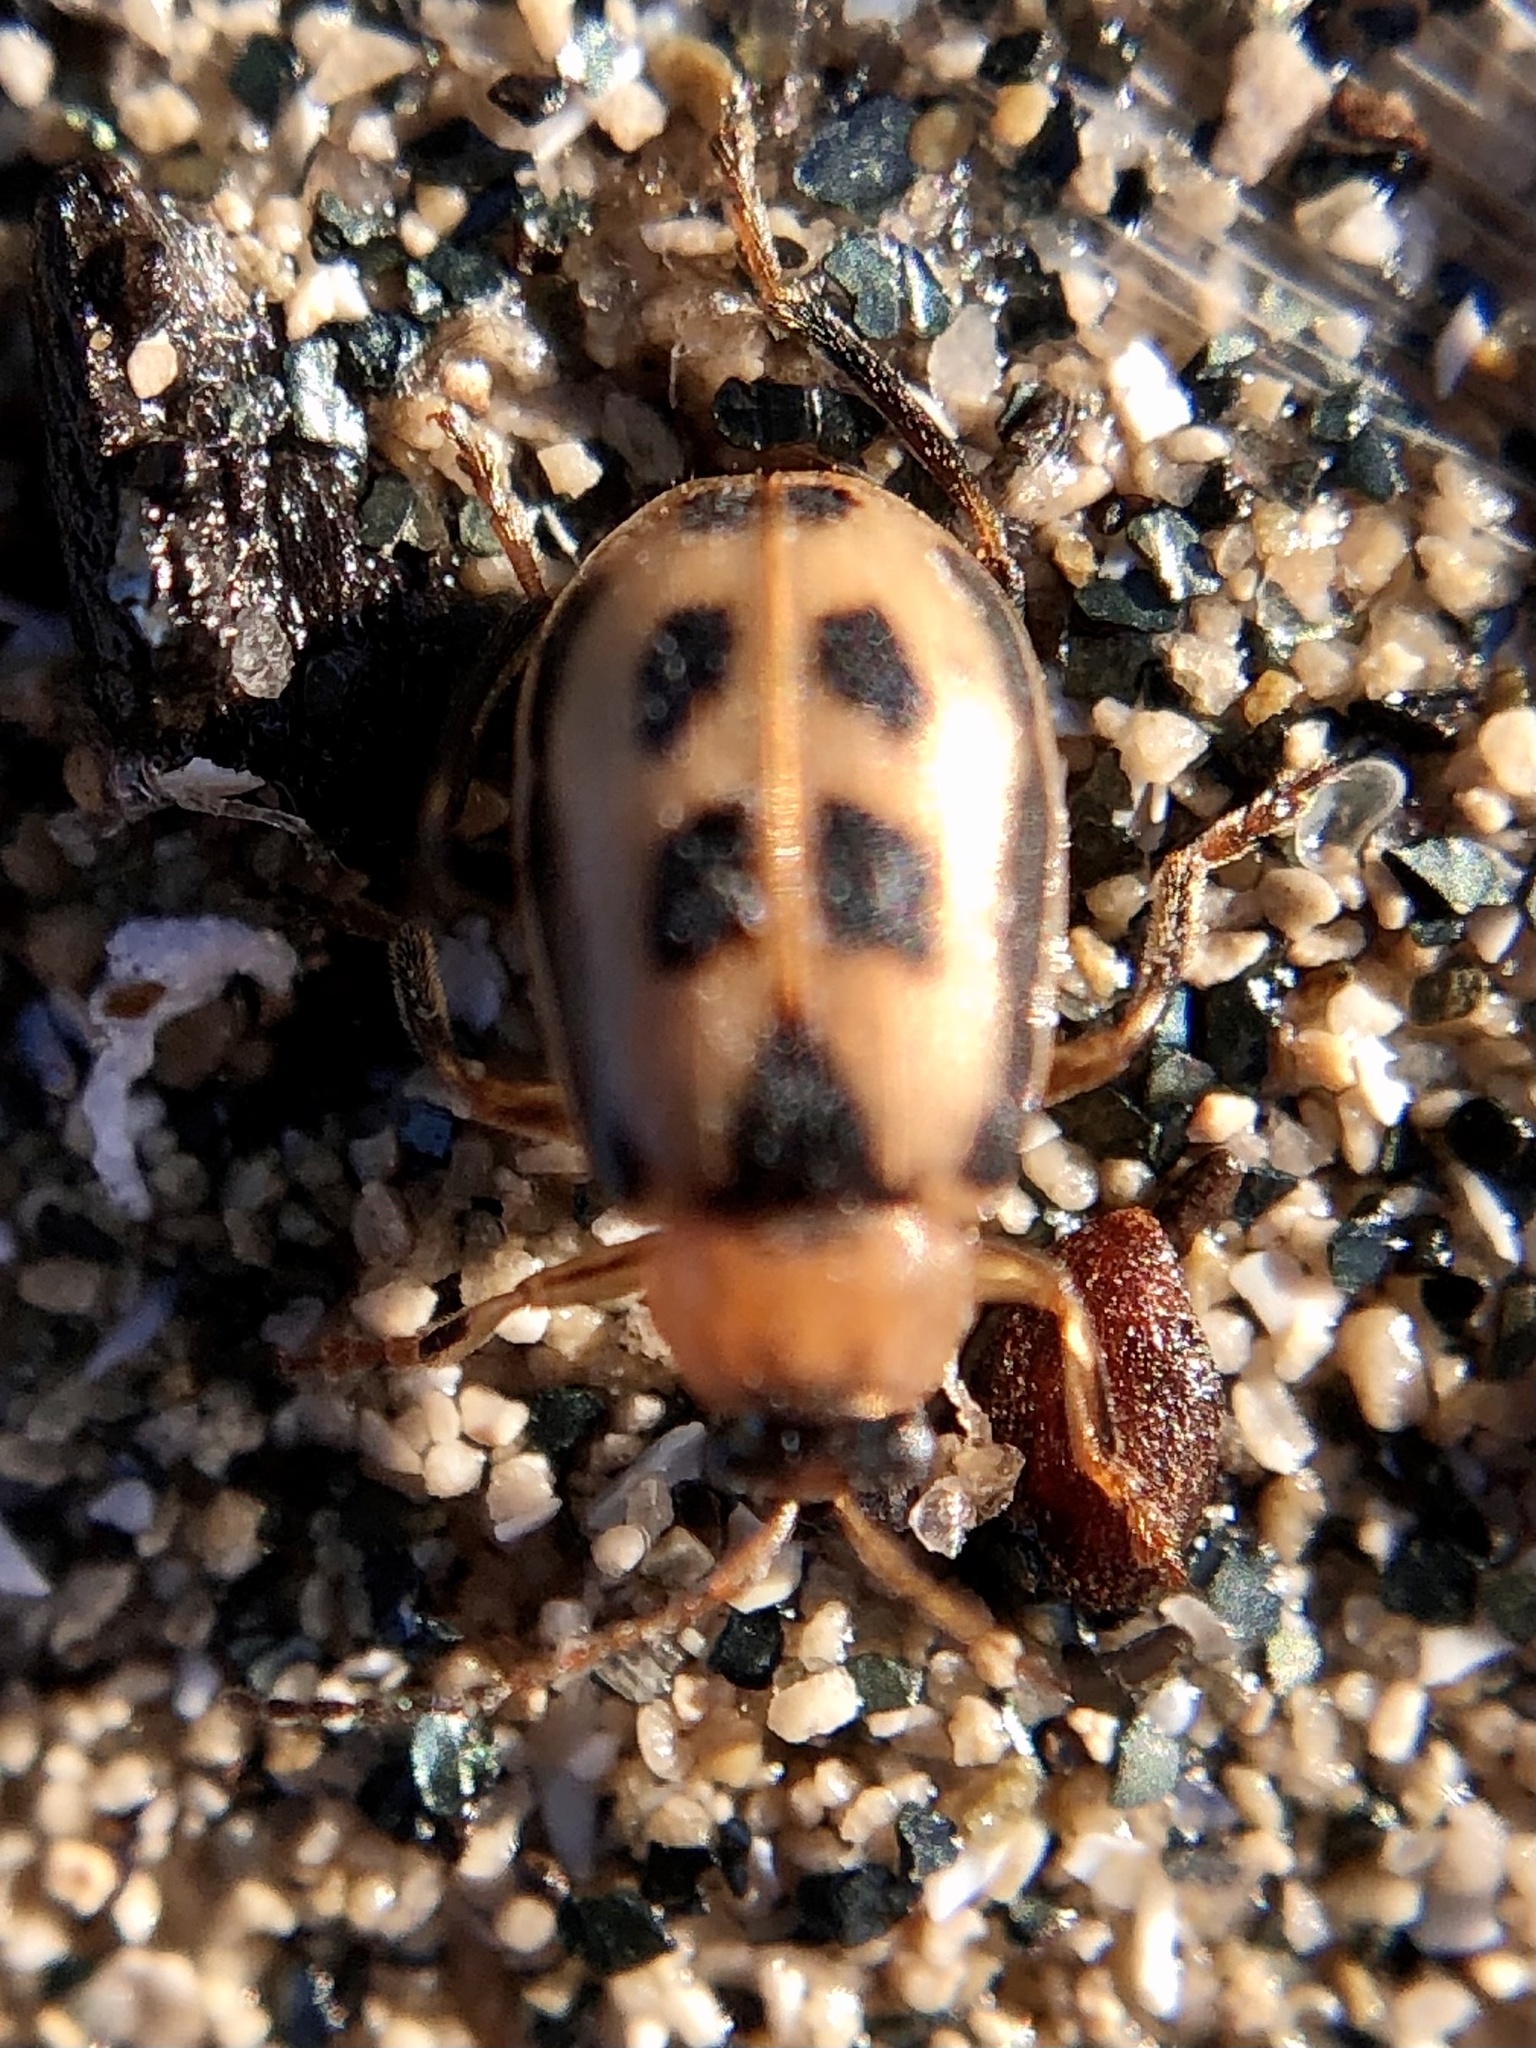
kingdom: Animalia
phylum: Arthropoda
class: Insecta
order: Coleoptera
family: Chrysomelidae
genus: Cerotoma
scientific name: Cerotoma trifurcata
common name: Bean leaf beetle
